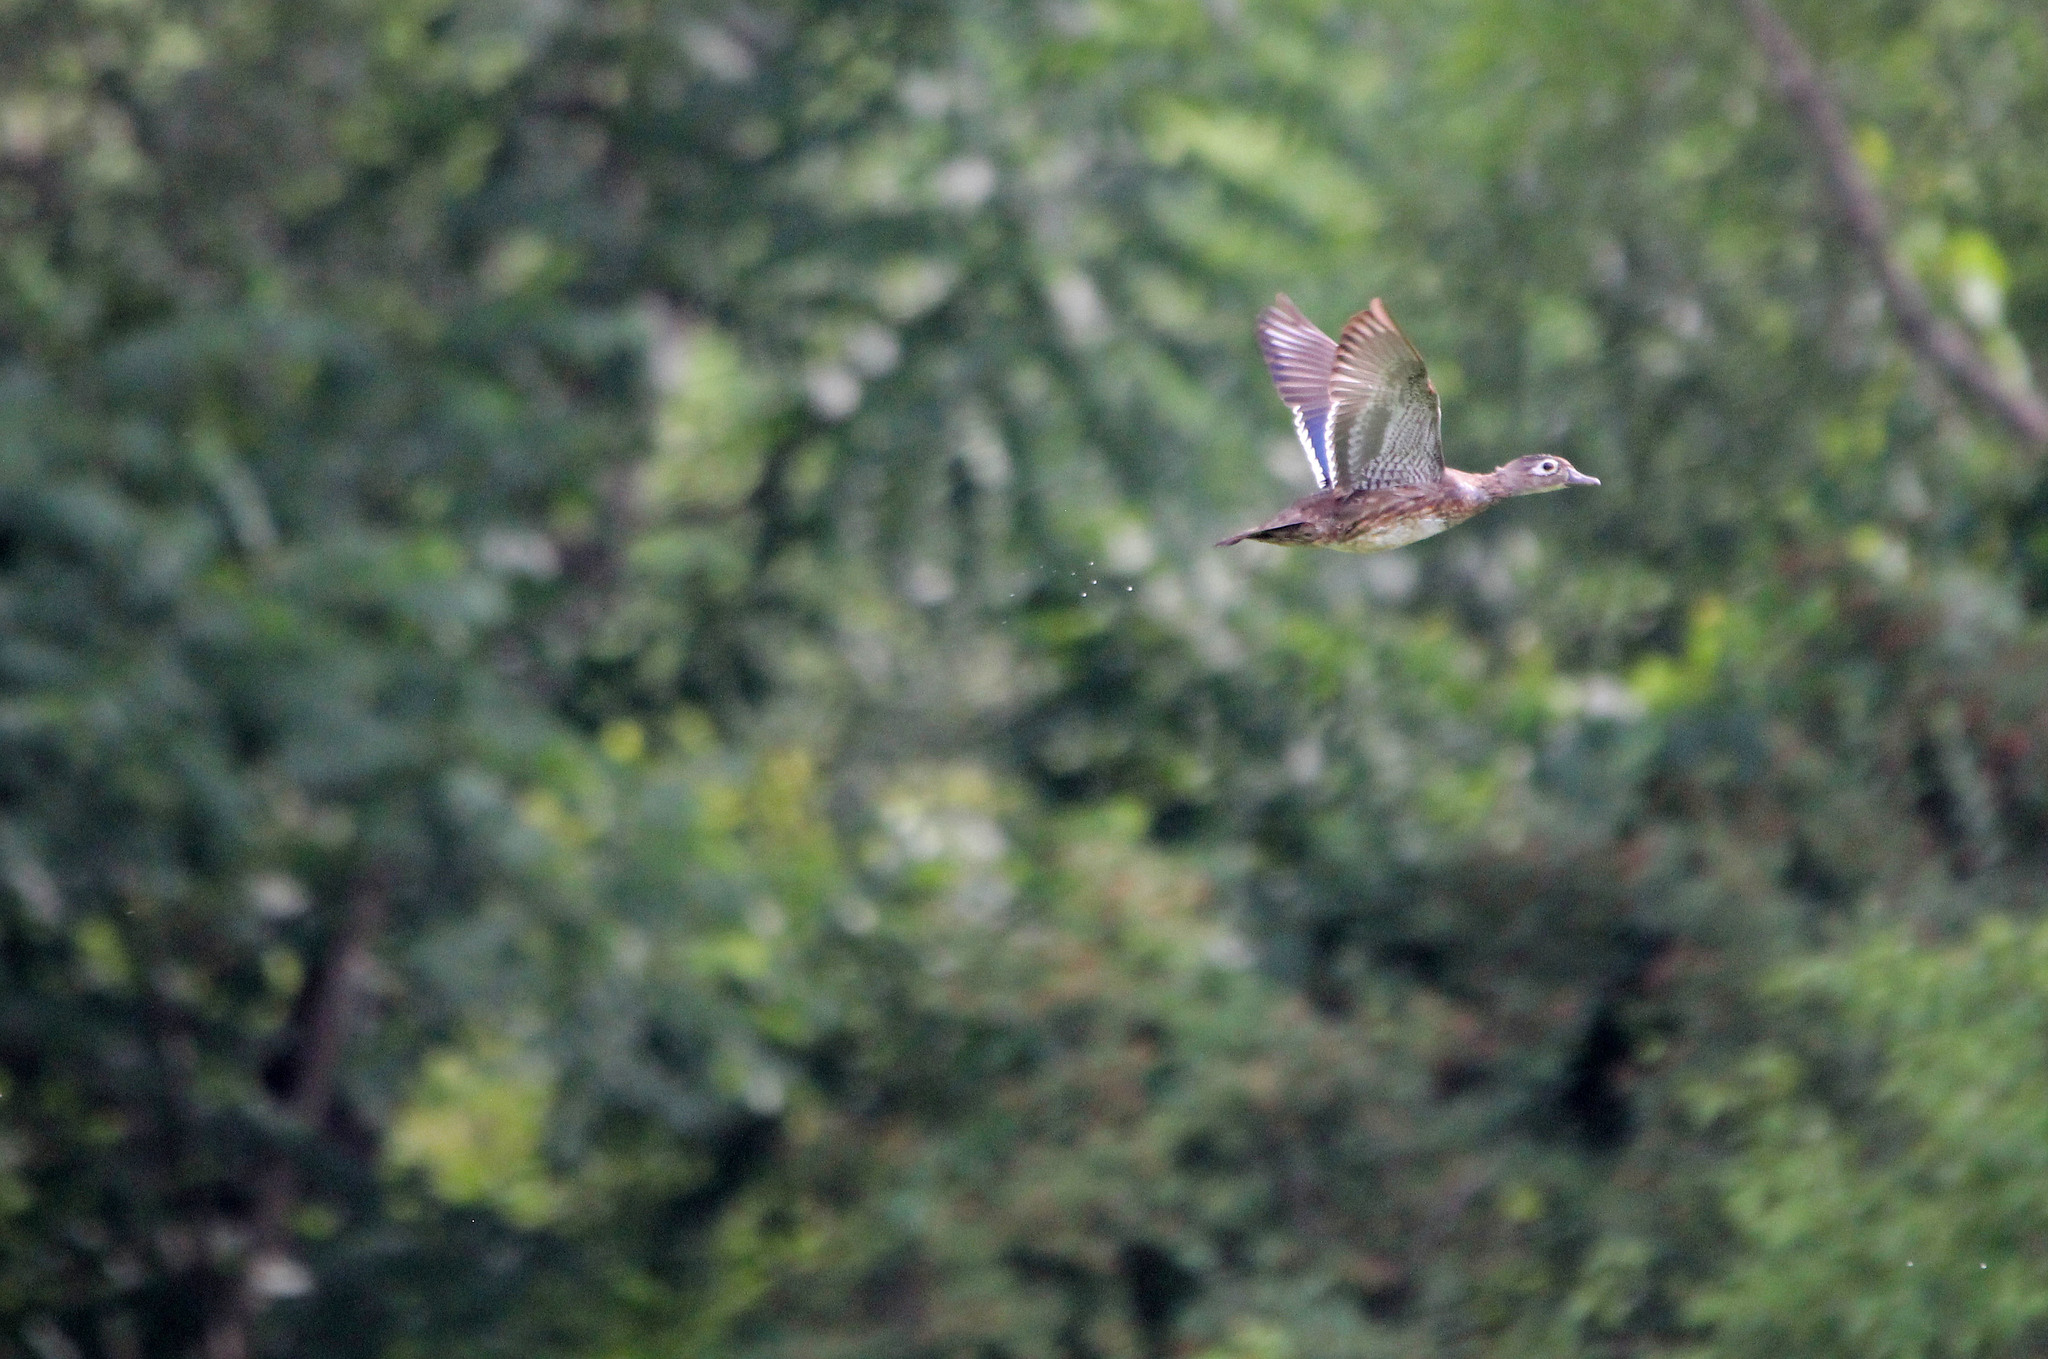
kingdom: Animalia
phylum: Chordata
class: Aves
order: Anseriformes
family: Anatidae
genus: Aix
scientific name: Aix sponsa
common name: Wood duck
